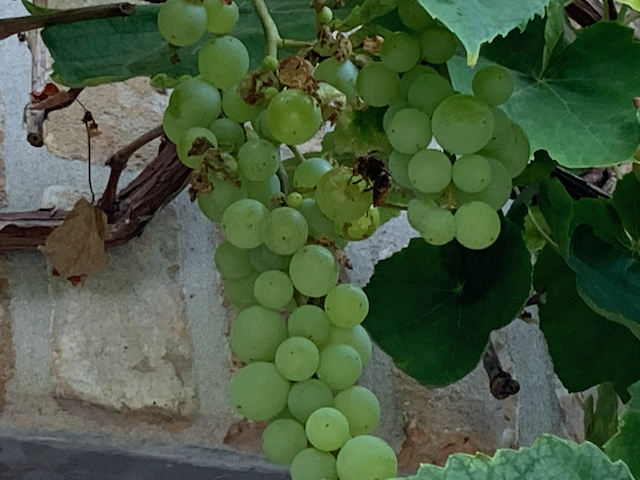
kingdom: Animalia
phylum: Arthropoda
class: Insecta
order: Hymenoptera
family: Vespidae
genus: Vespa
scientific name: Vespa velutina
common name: Asian hornet
